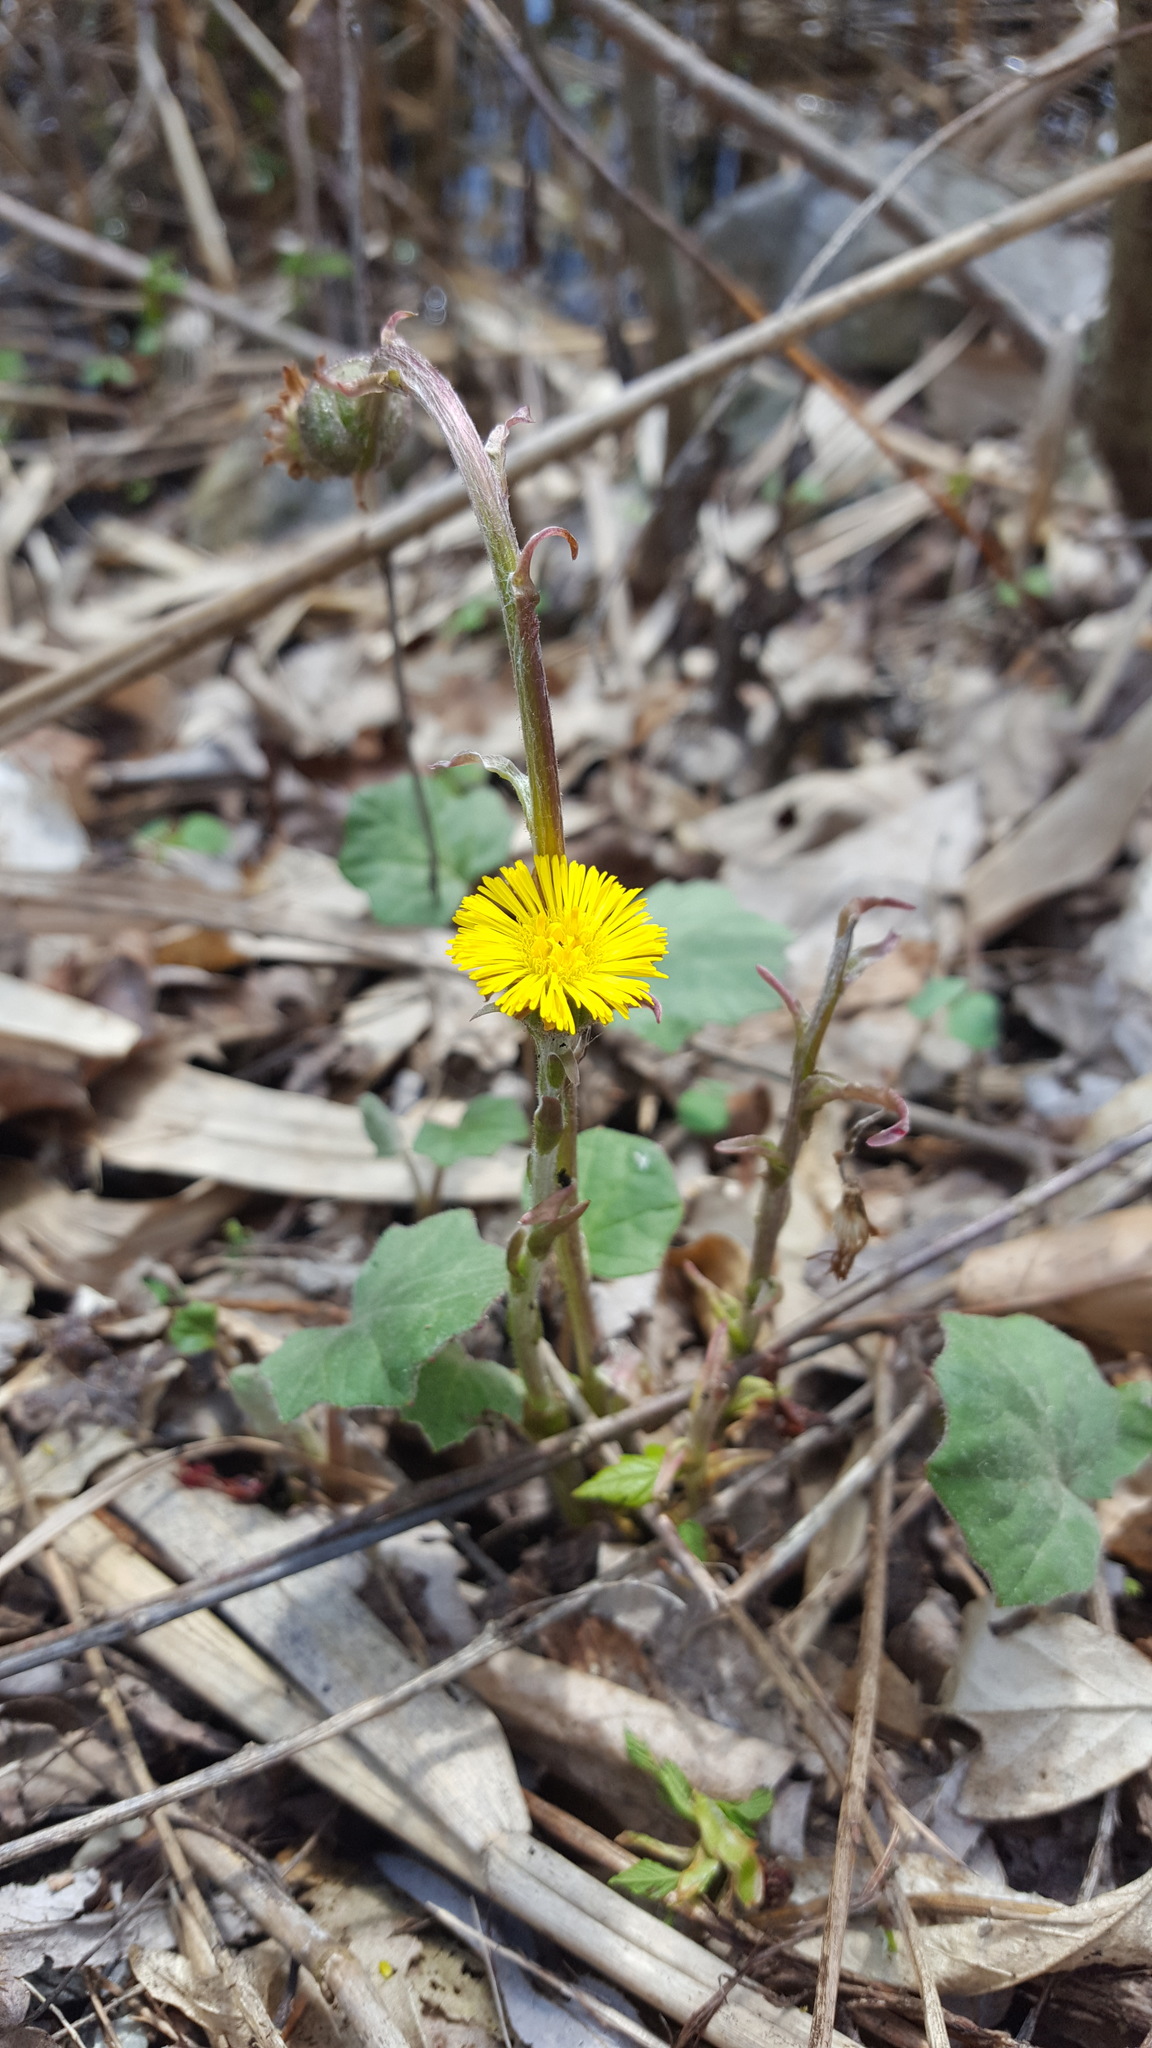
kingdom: Plantae
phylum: Tracheophyta
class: Magnoliopsida
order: Asterales
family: Asteraceae
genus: Tussilago
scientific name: Tussilago farfara
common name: Coltsfoot
